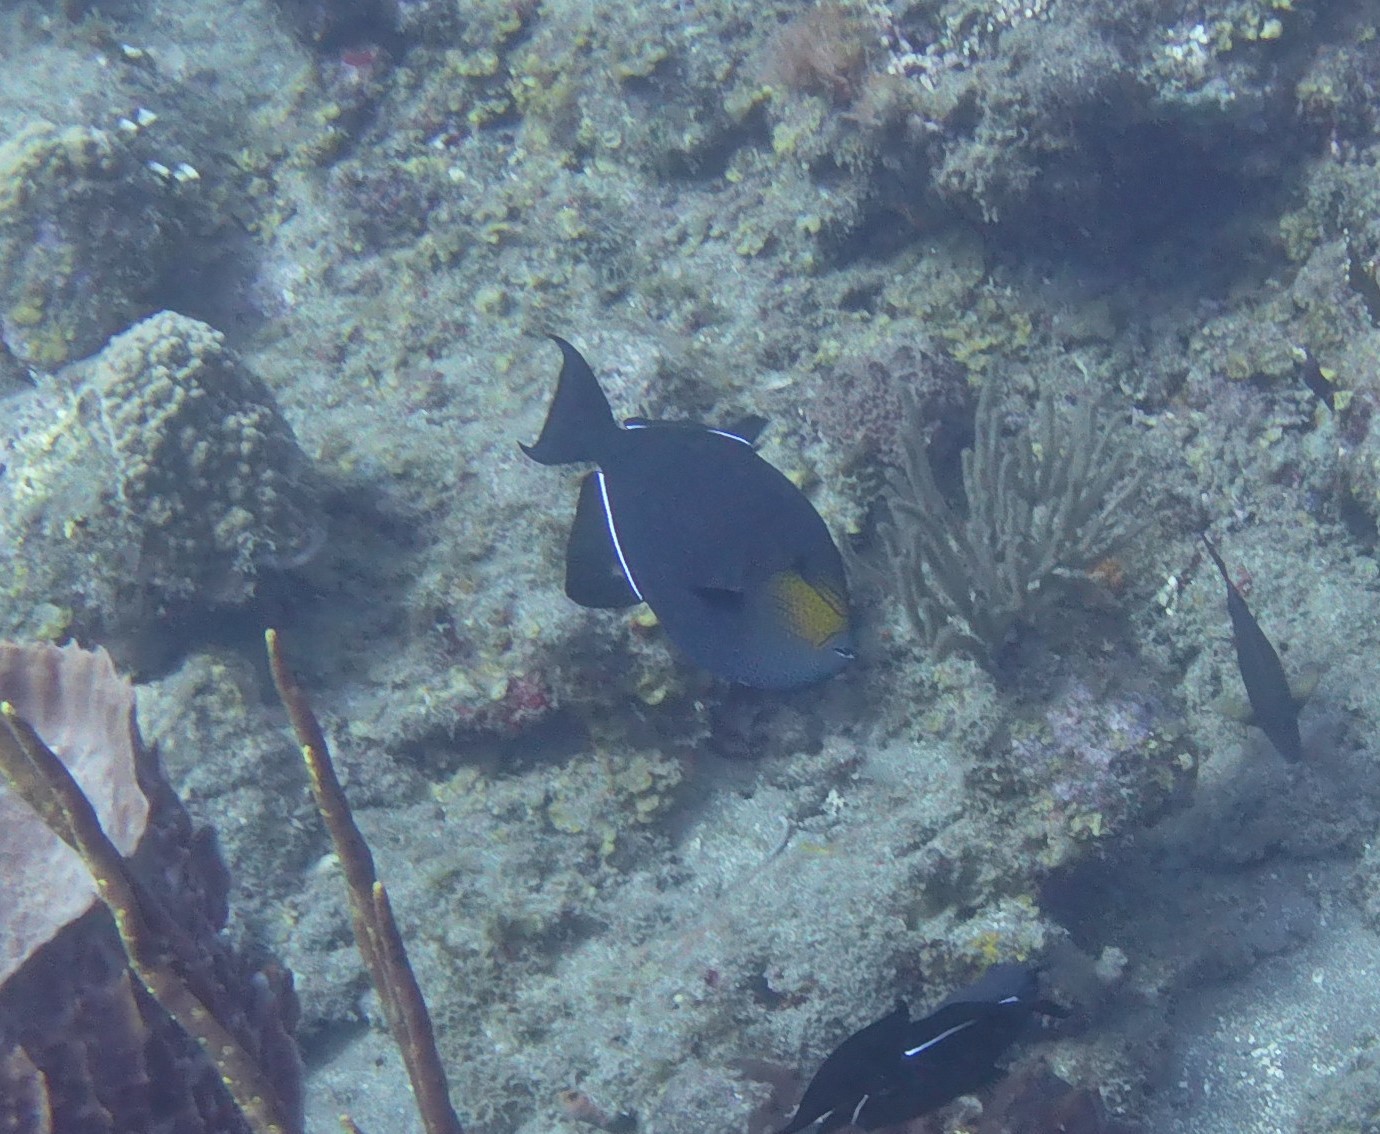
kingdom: Animalia
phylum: Chordata
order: Tetraodontiformes
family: Balistidae
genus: Melichthys
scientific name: Melichthys niger
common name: Black durgon
